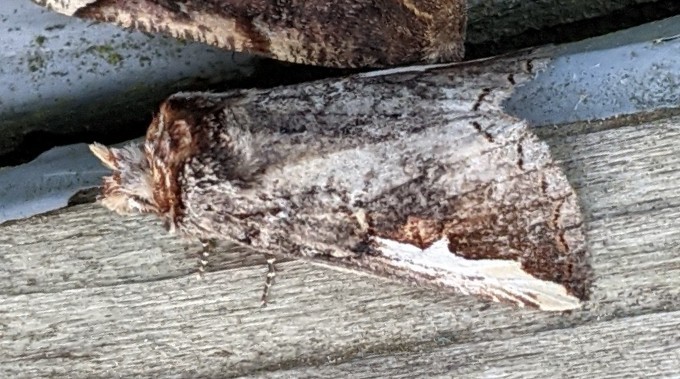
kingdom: Animalia
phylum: Arthropoda
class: Insecta
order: Lepidoptera
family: Notodontidae
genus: Symmerista
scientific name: Symmerista albifrons
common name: White-headed prominent
